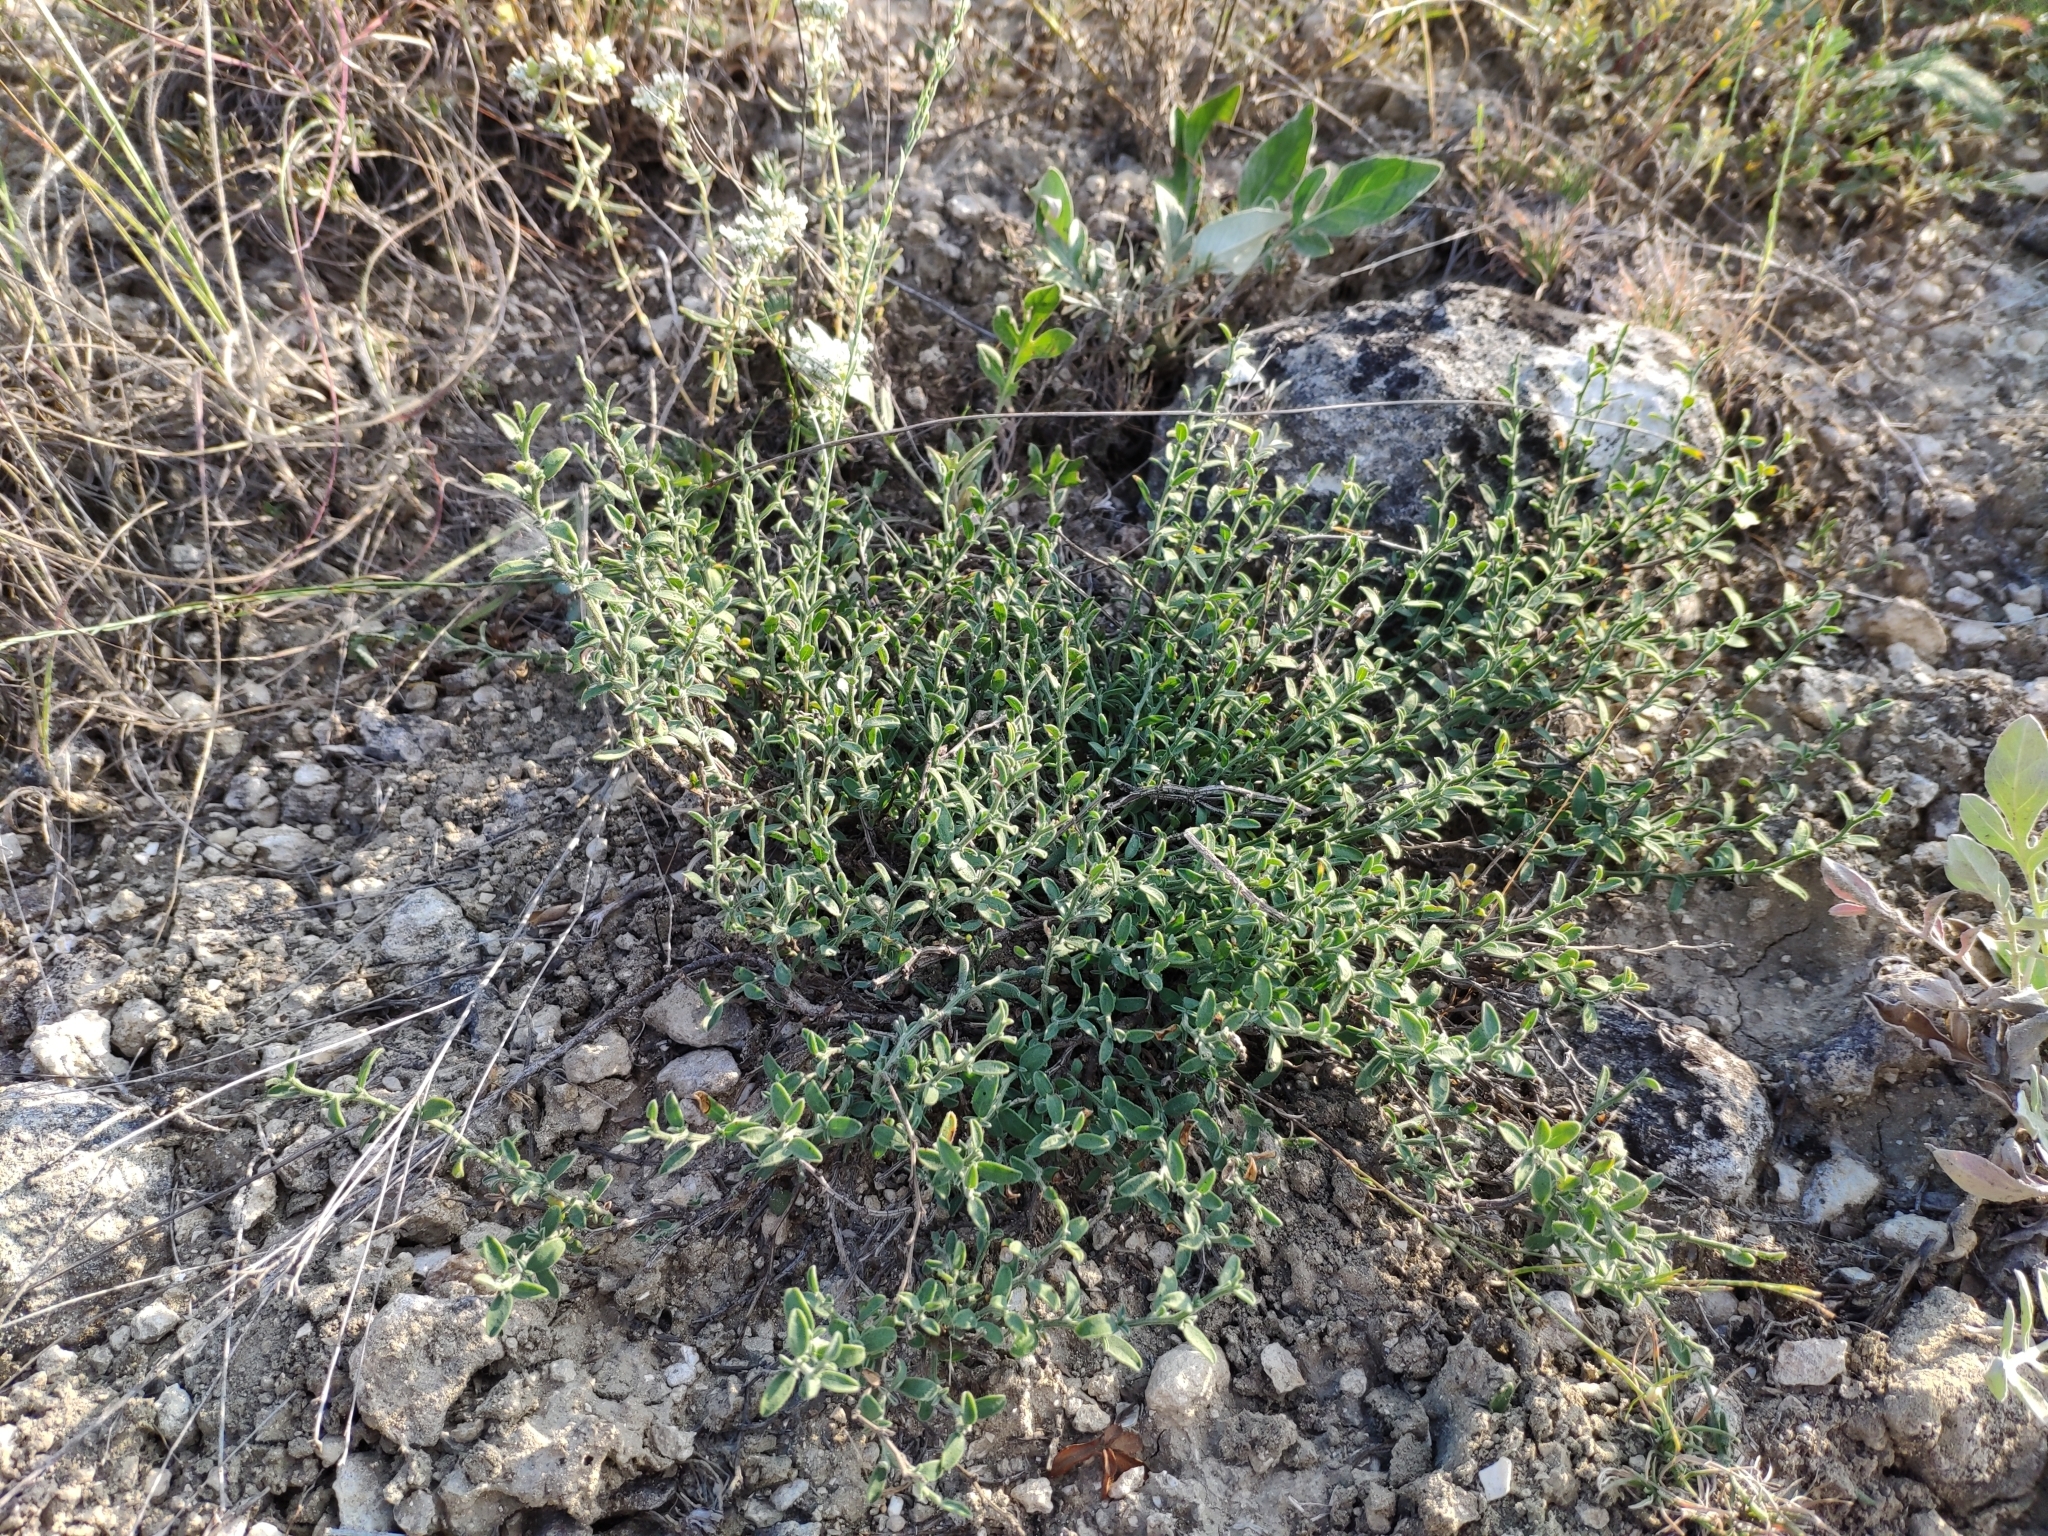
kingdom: Plantae
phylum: Tracheophyta
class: Magnoliopsida
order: Fabales
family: Fabaceae
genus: Genista
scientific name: Genista albida
